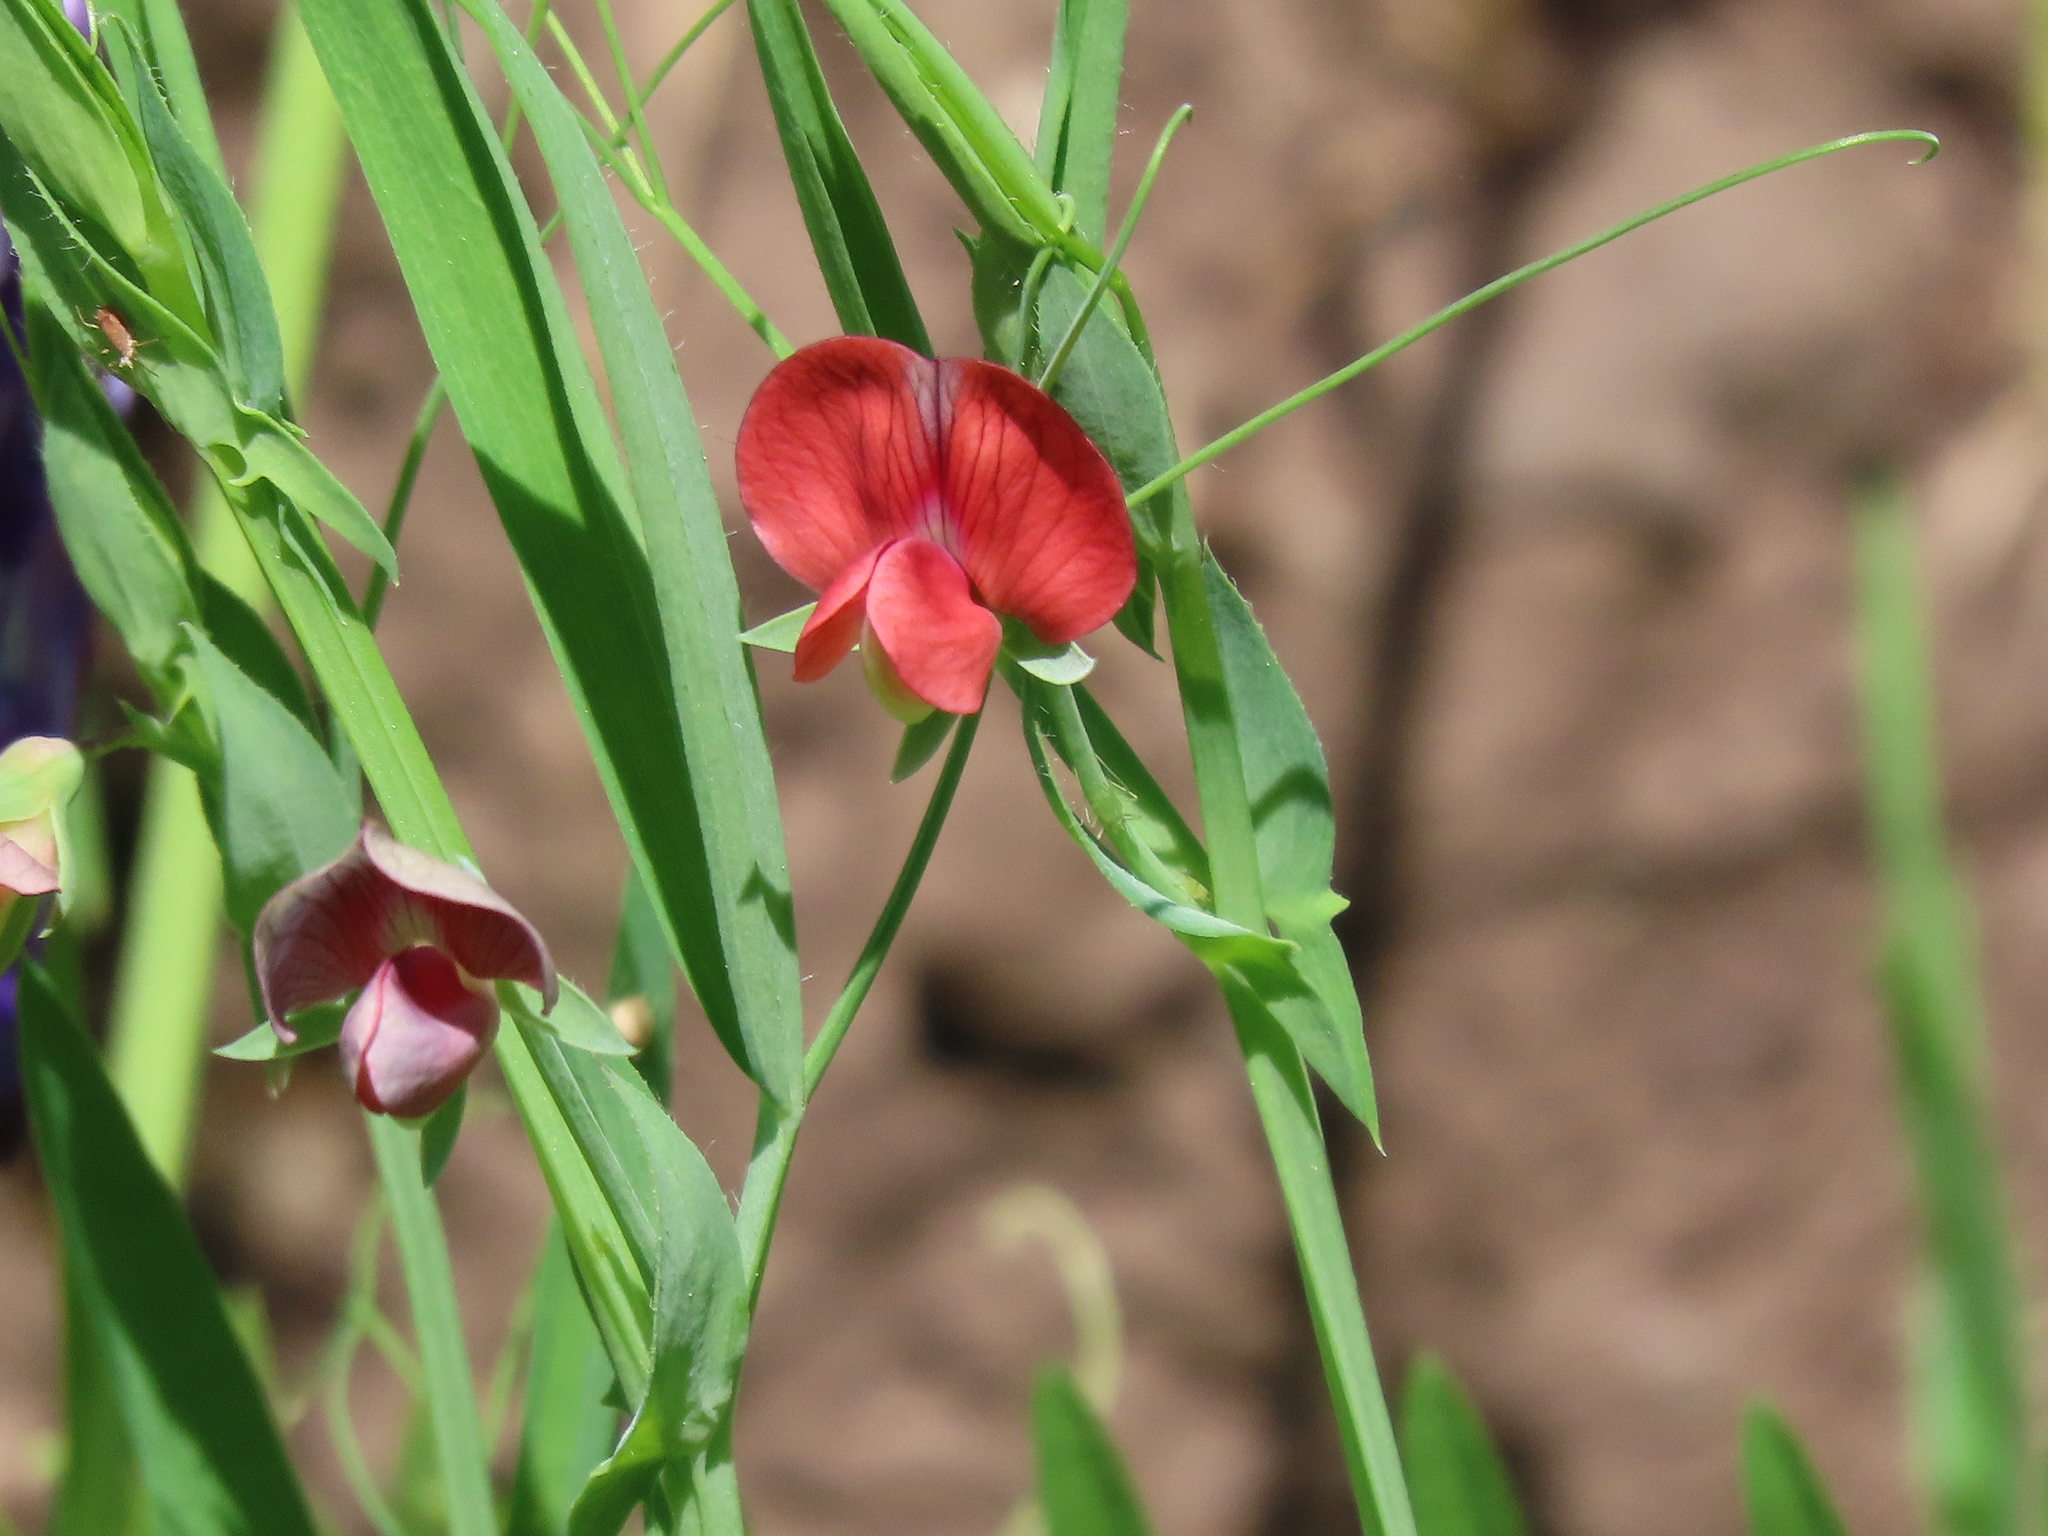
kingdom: Plantae
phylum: Tracheophyta
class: Magnoliopsida
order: Fabales
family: Fabaceae
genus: Lathyrus
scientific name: Lathyrus cicera
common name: Red vetchling
